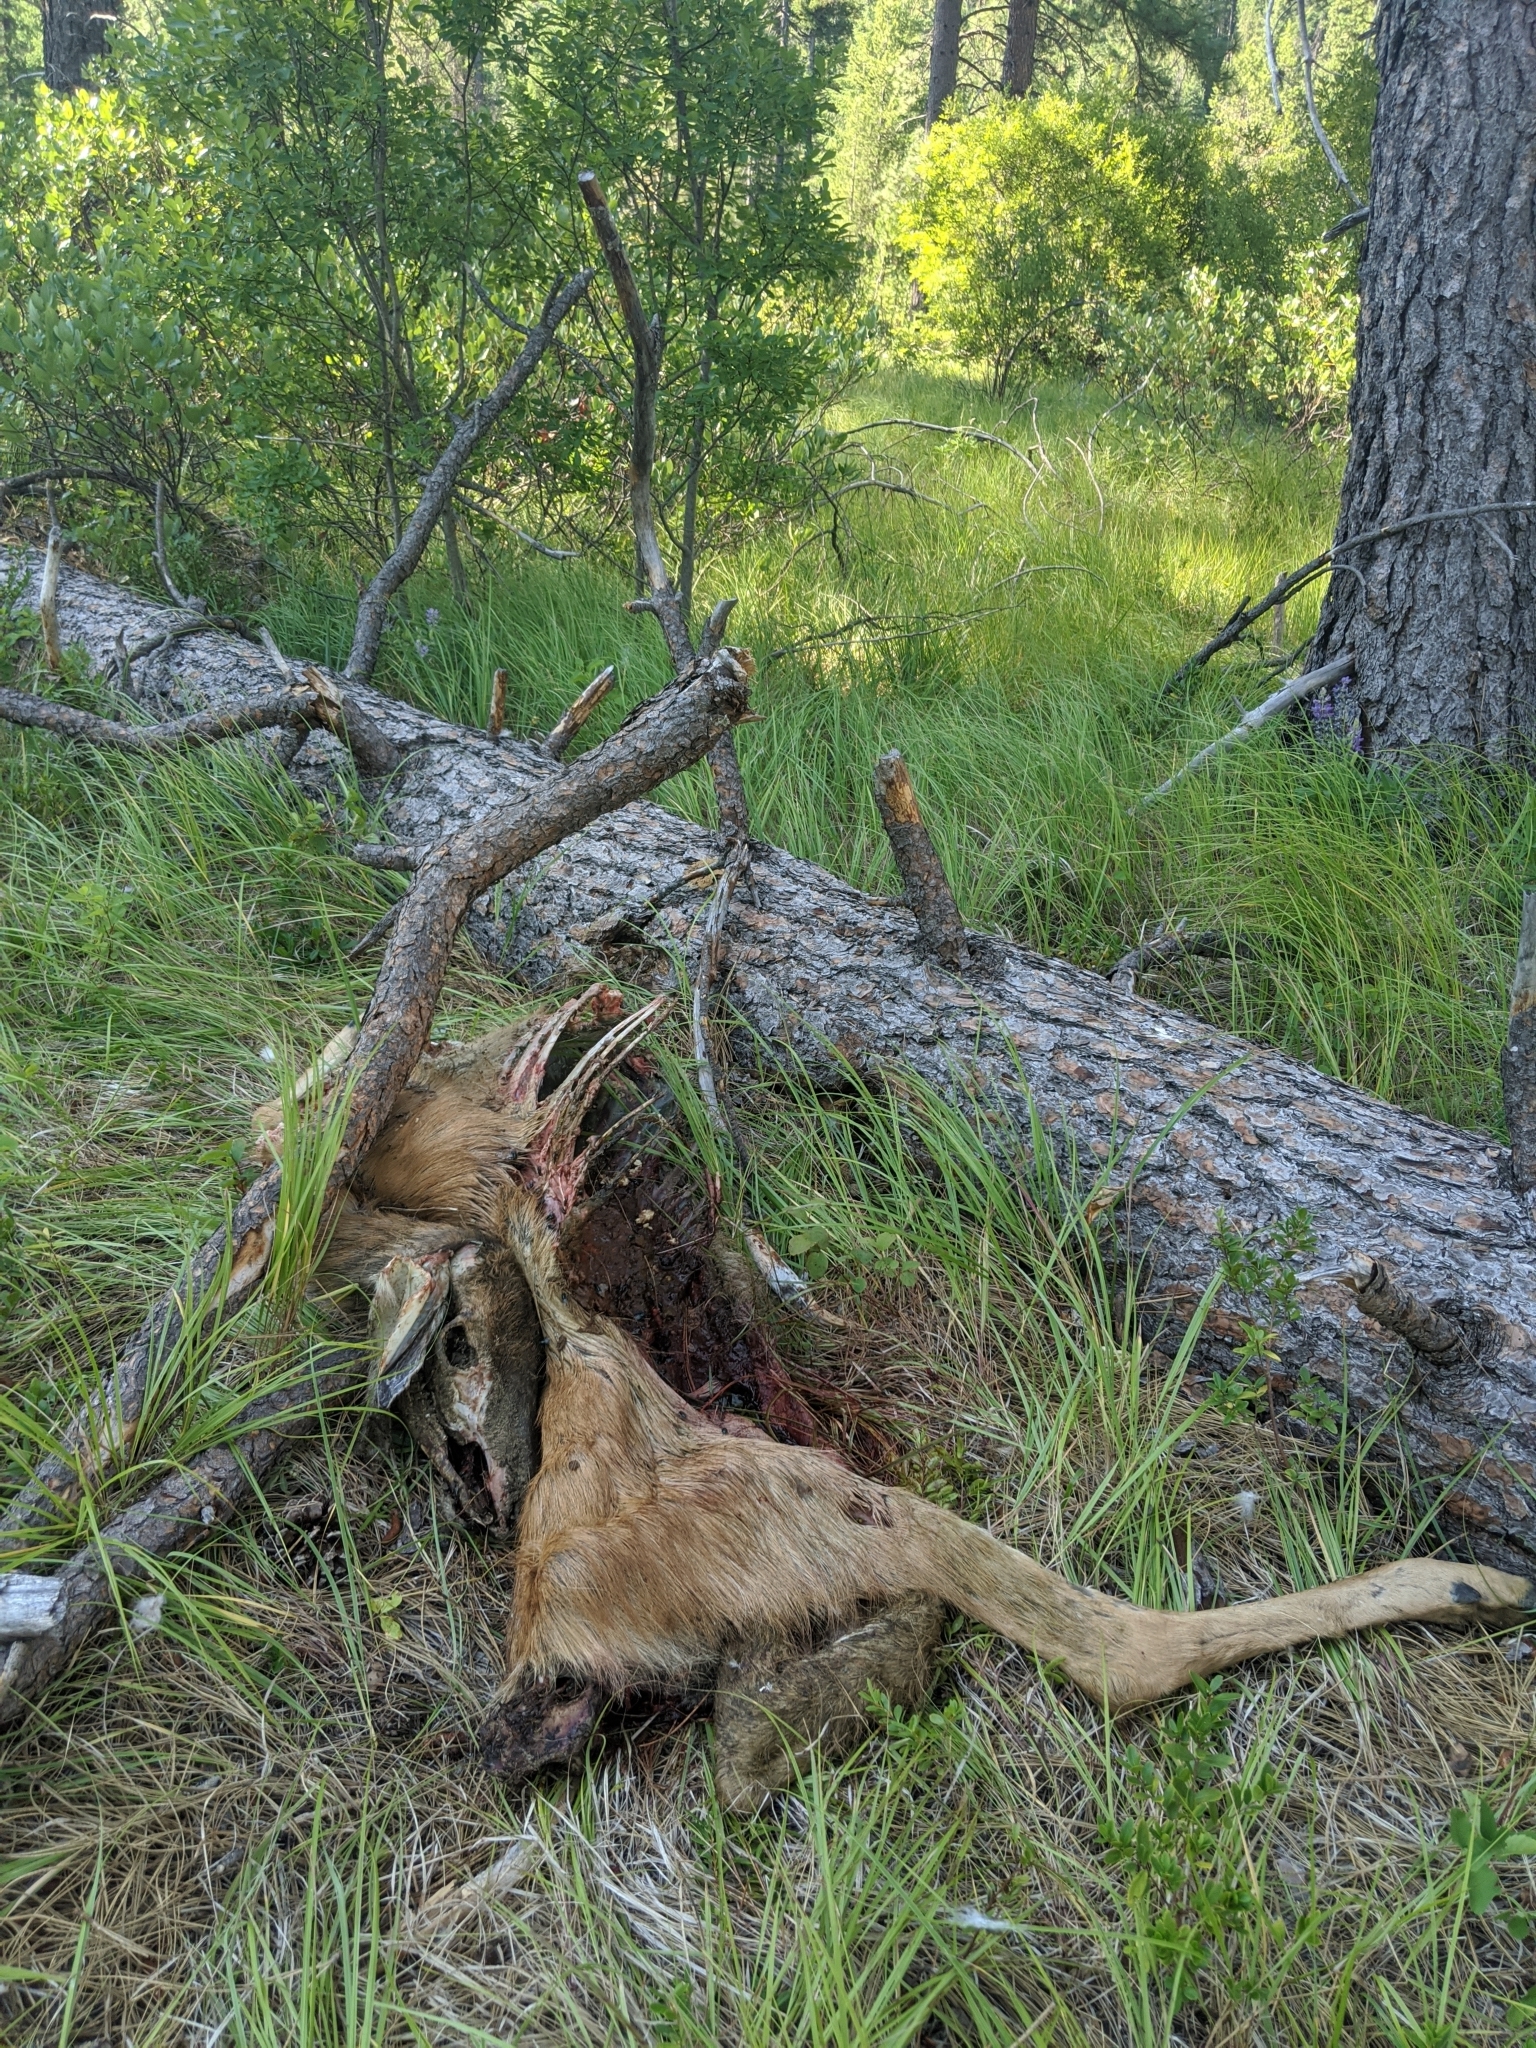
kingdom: Animalia
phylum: Chordata
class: Mammalia
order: Artiodactyla
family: Cervidae
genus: Odocoileus
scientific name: Odocoileus hemionus
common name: Mule deer
